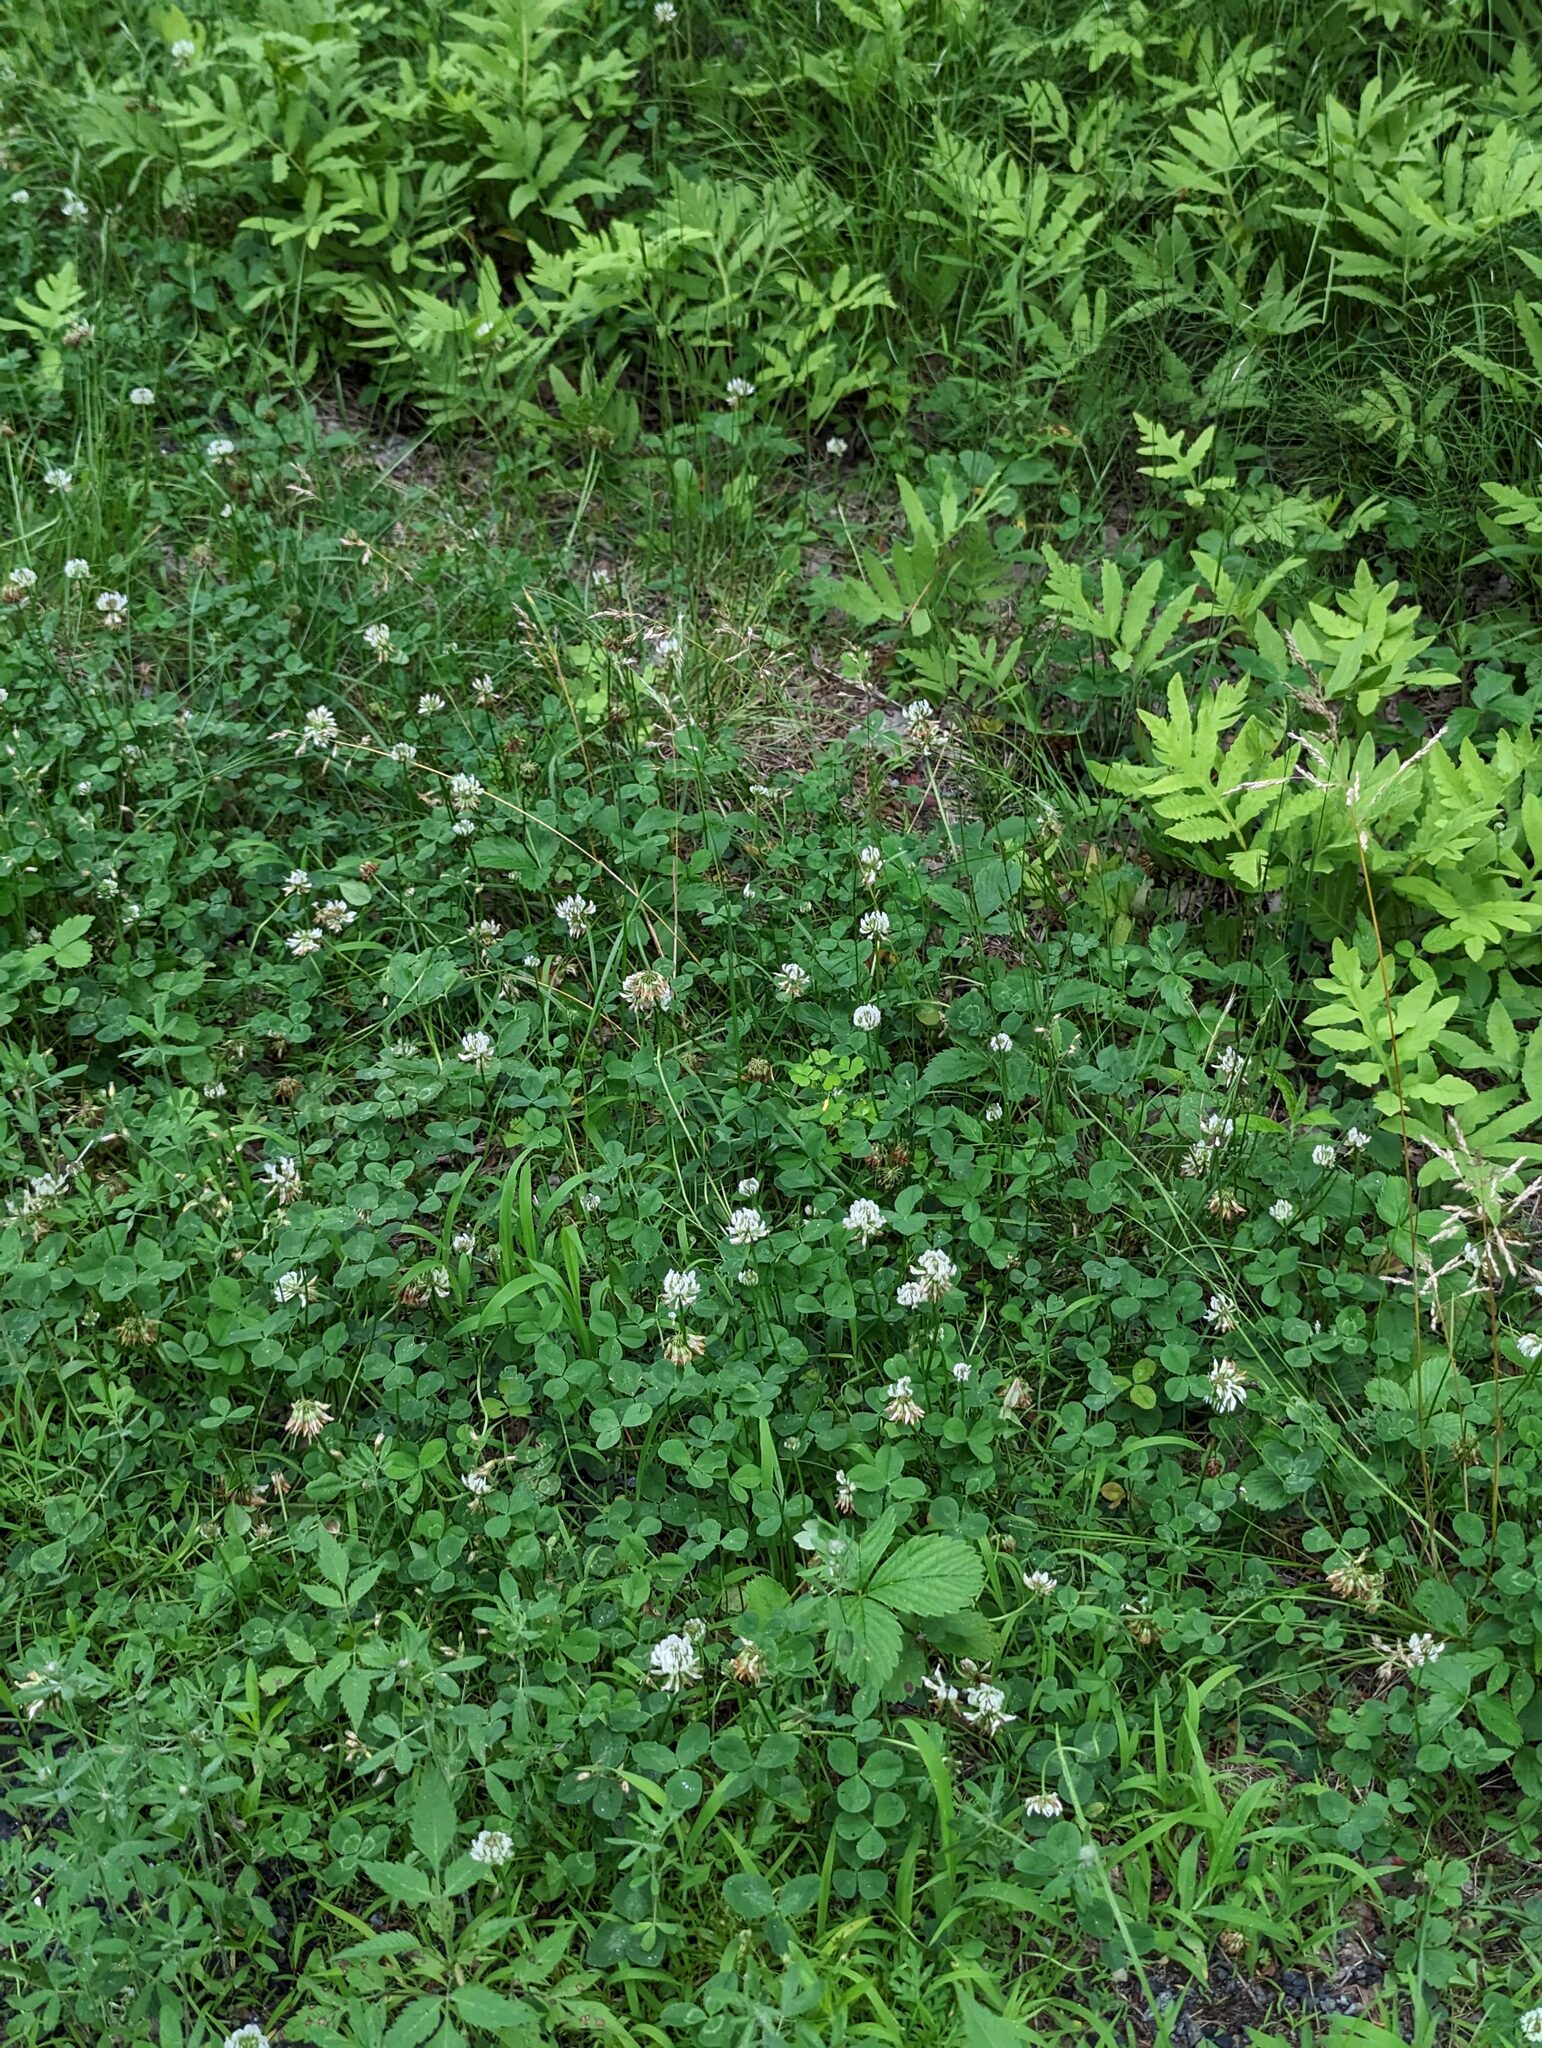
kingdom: Plantae
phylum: Tracheophyta
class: Magnoliopsida
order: Fabales
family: Fabaceae
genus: Trifolium
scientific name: Trifolium repens
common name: White clover
